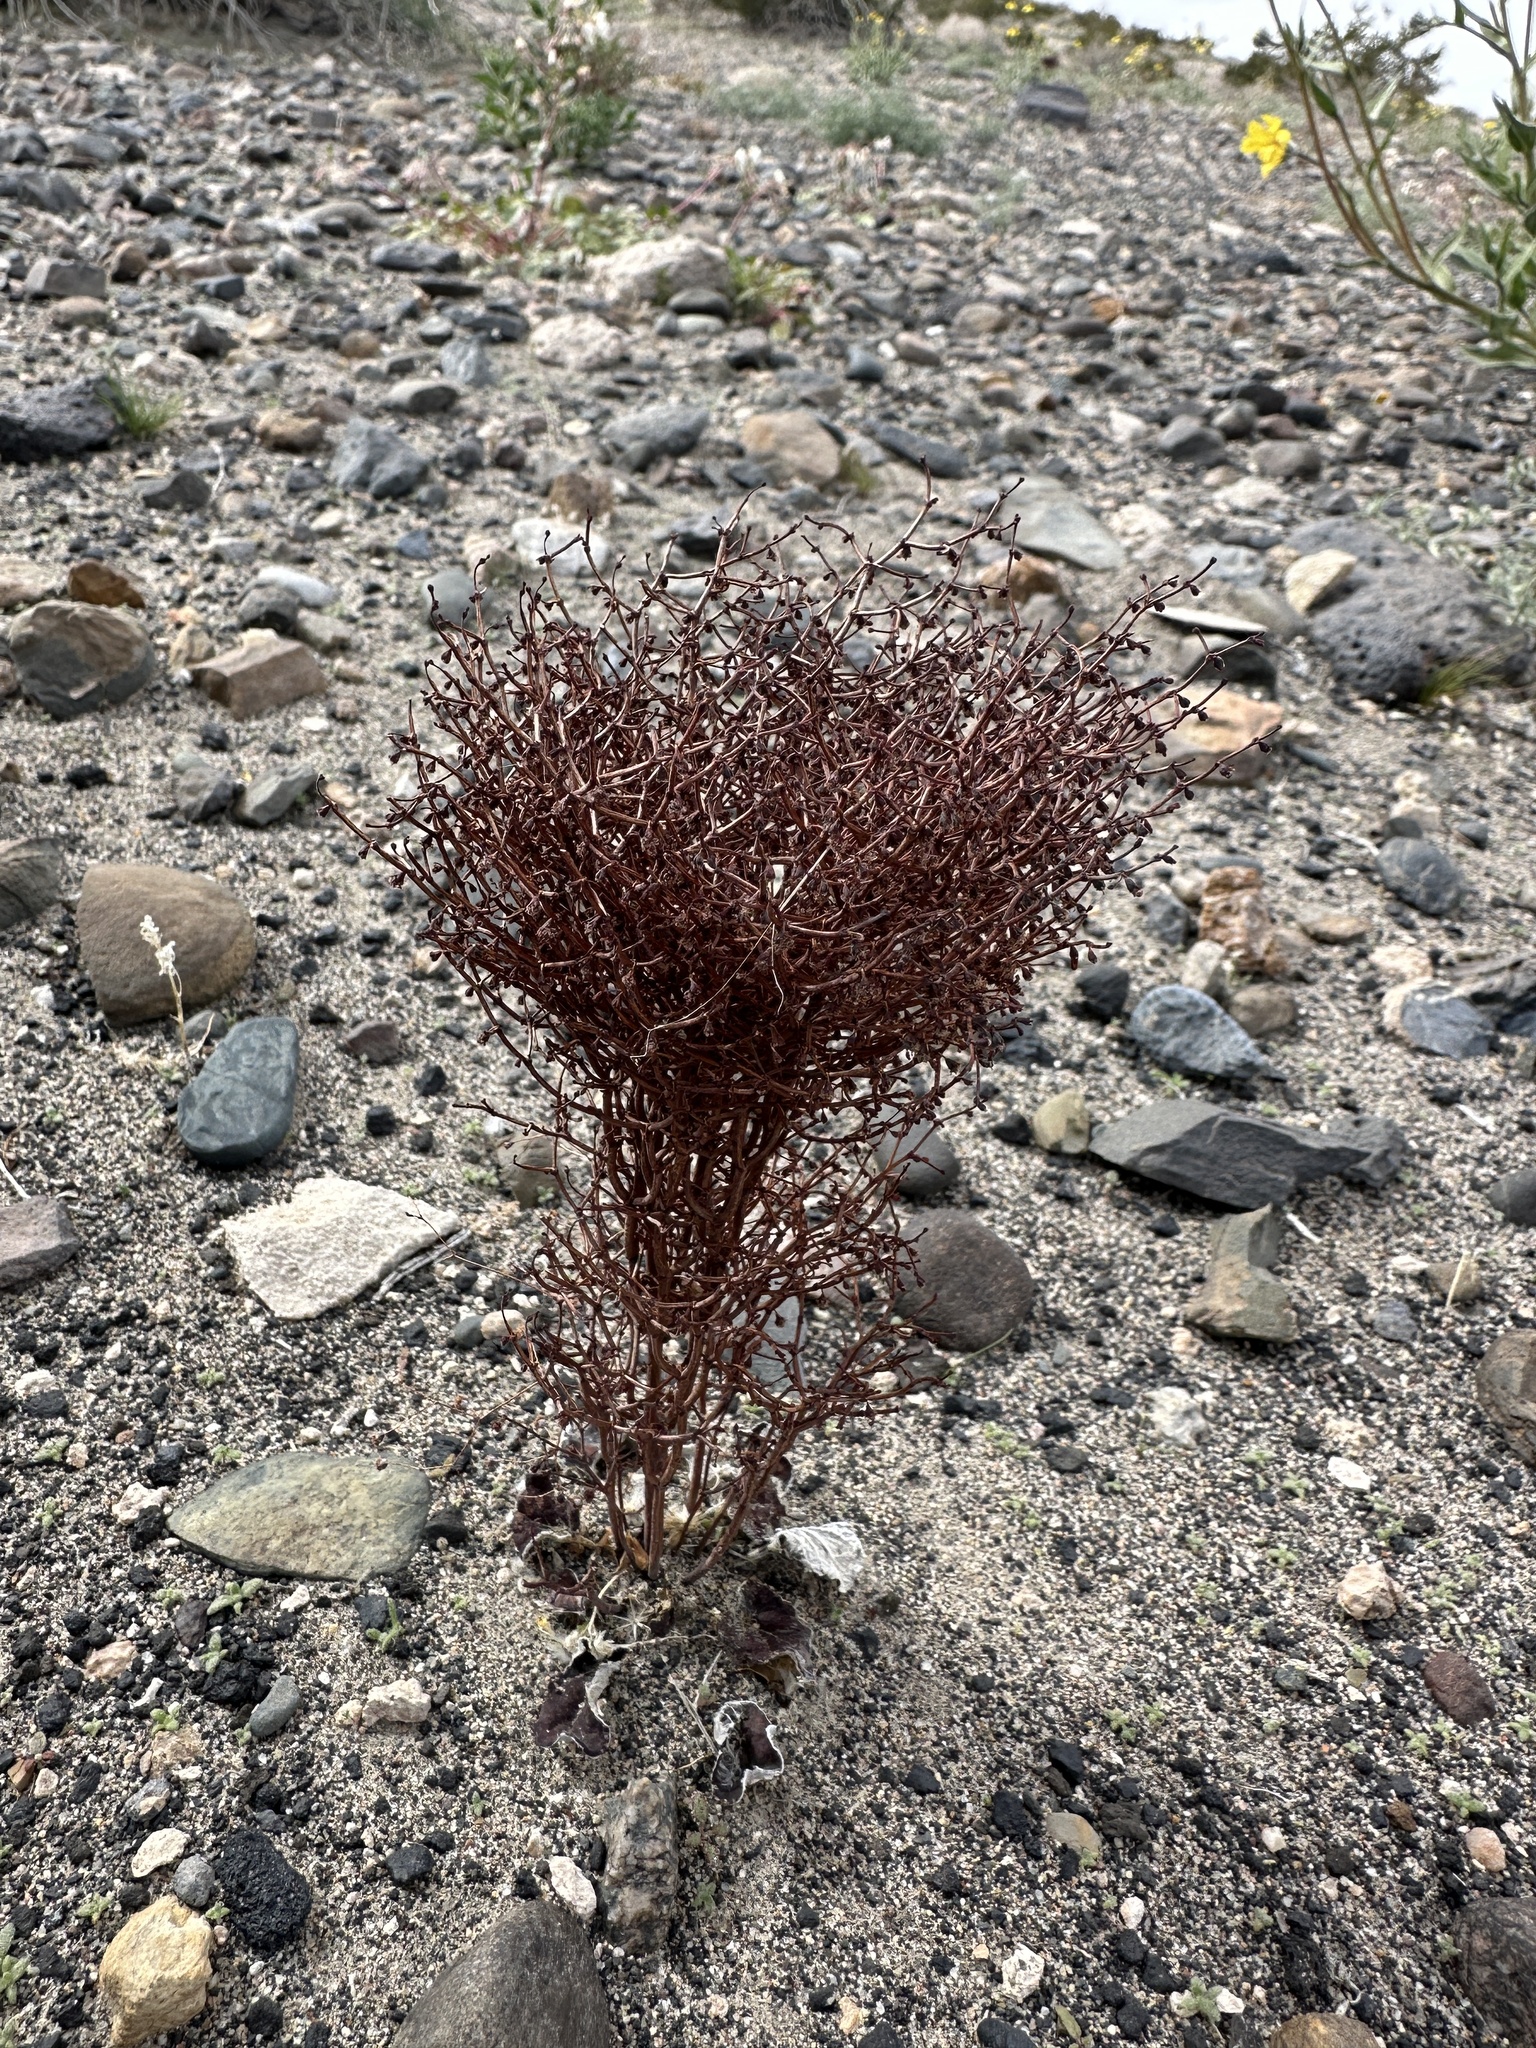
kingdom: Plantae
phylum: Tracheophyta
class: Magnoliopsida
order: Caryophyllales
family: Polygonaceae
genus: Eriogonum
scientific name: Eriogonum rixfordii
